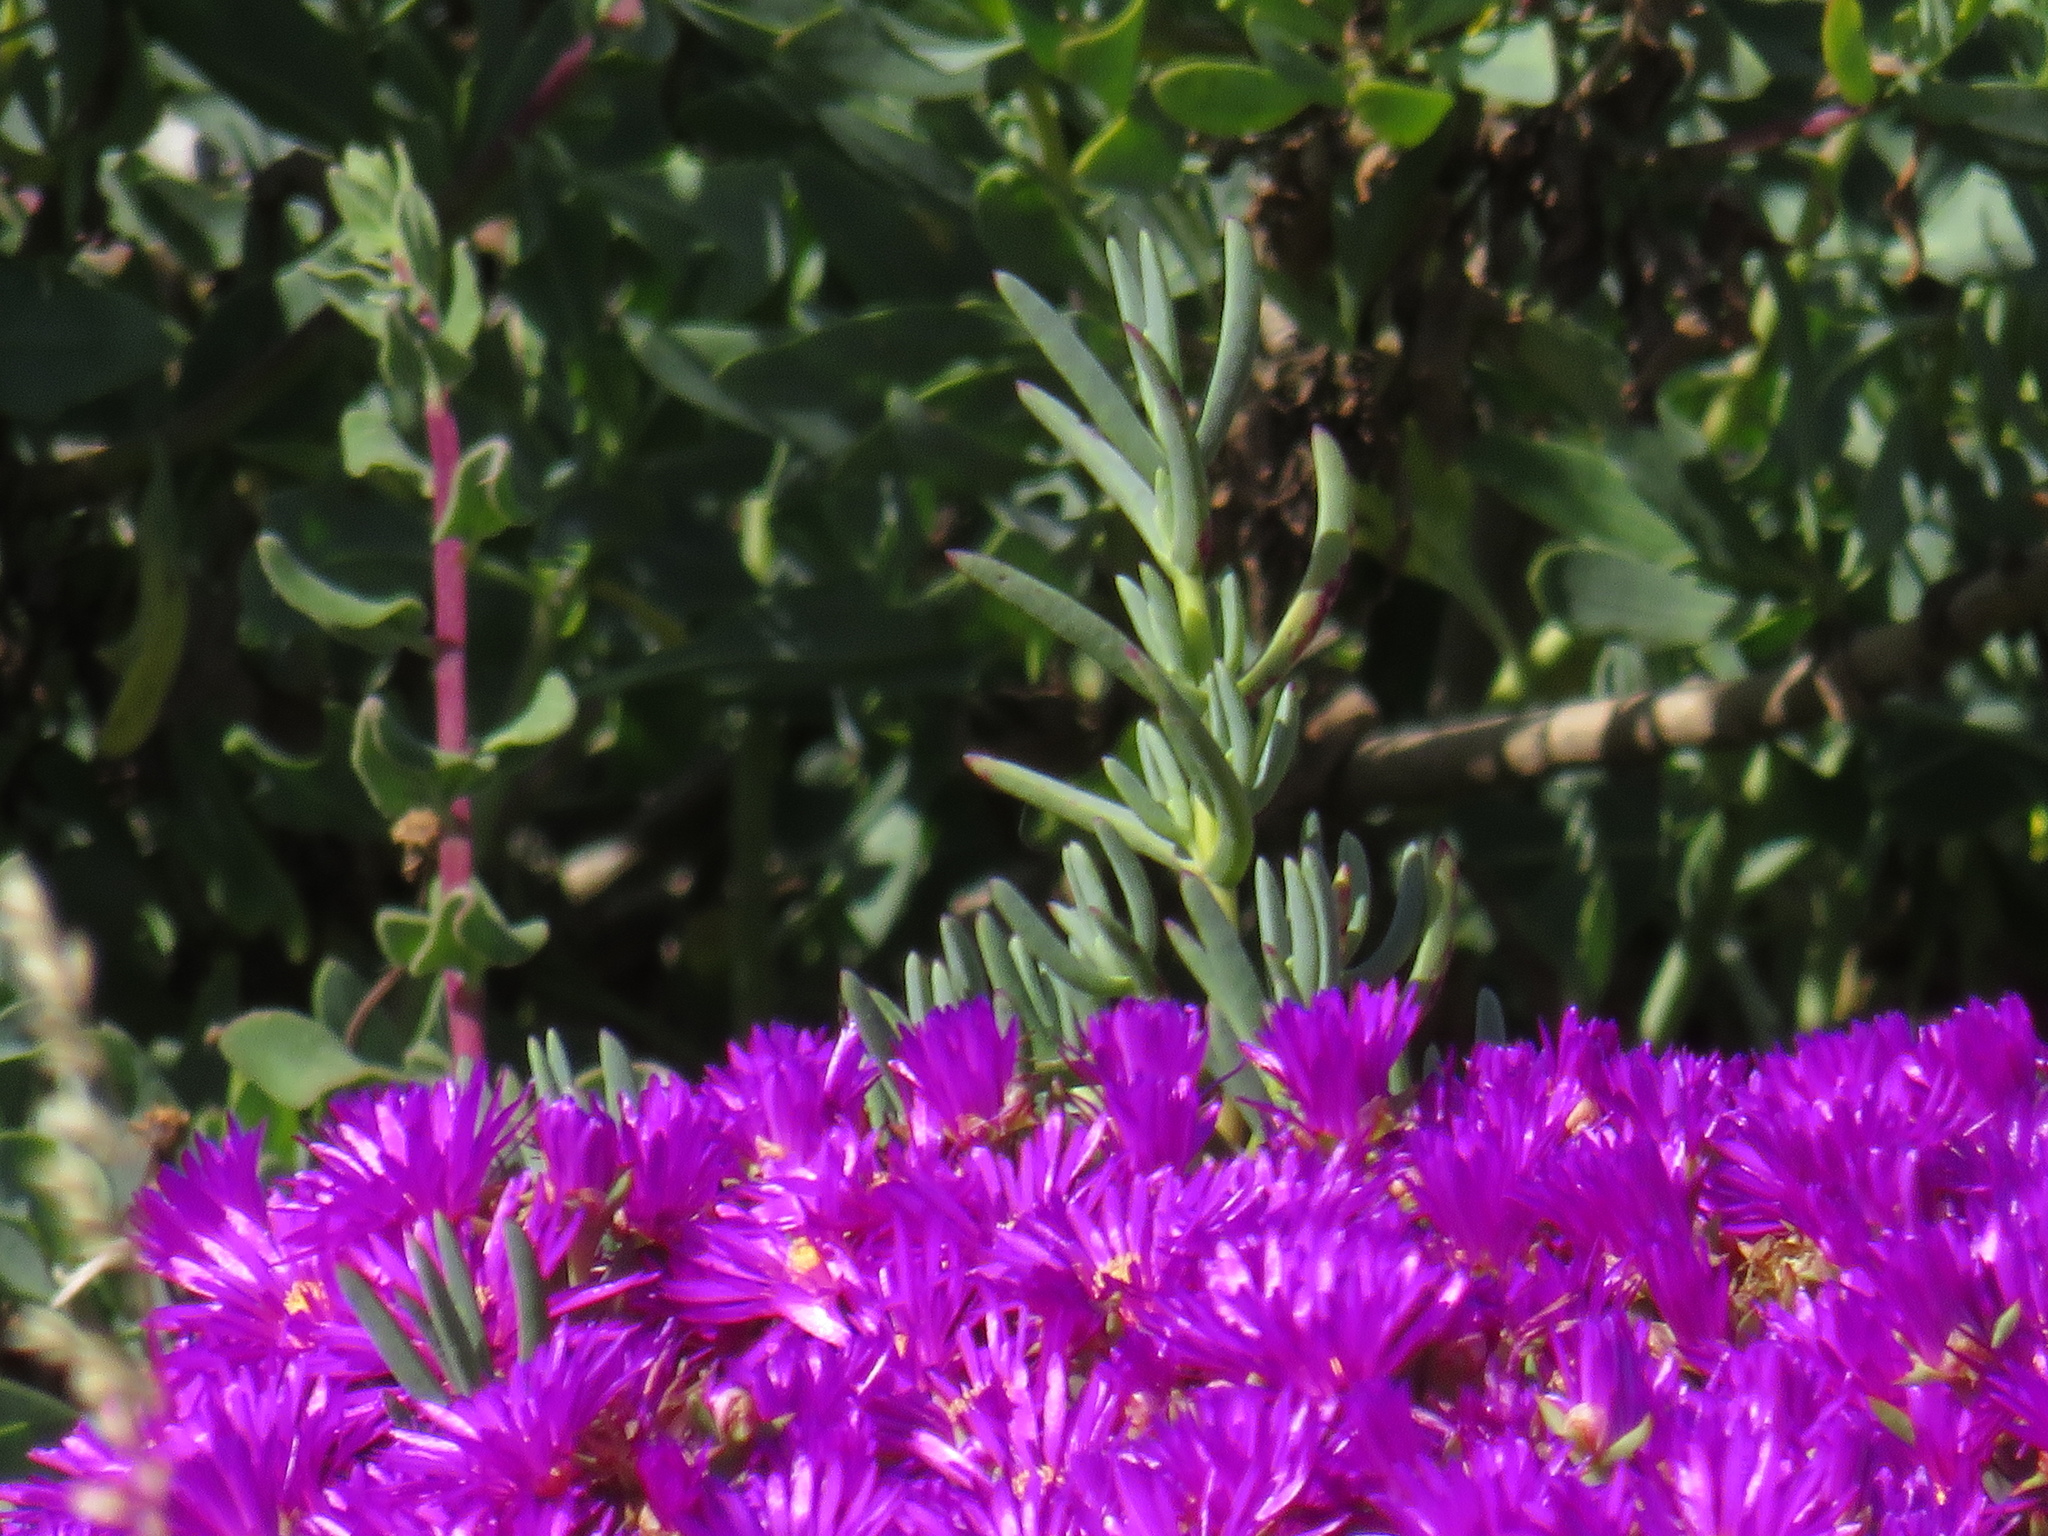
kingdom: Plantae
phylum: Tracheophyta
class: Magnoliopsida
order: Caryophyllales
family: Aizoaceae
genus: Lampranthus
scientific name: Lampranthus vernalis
